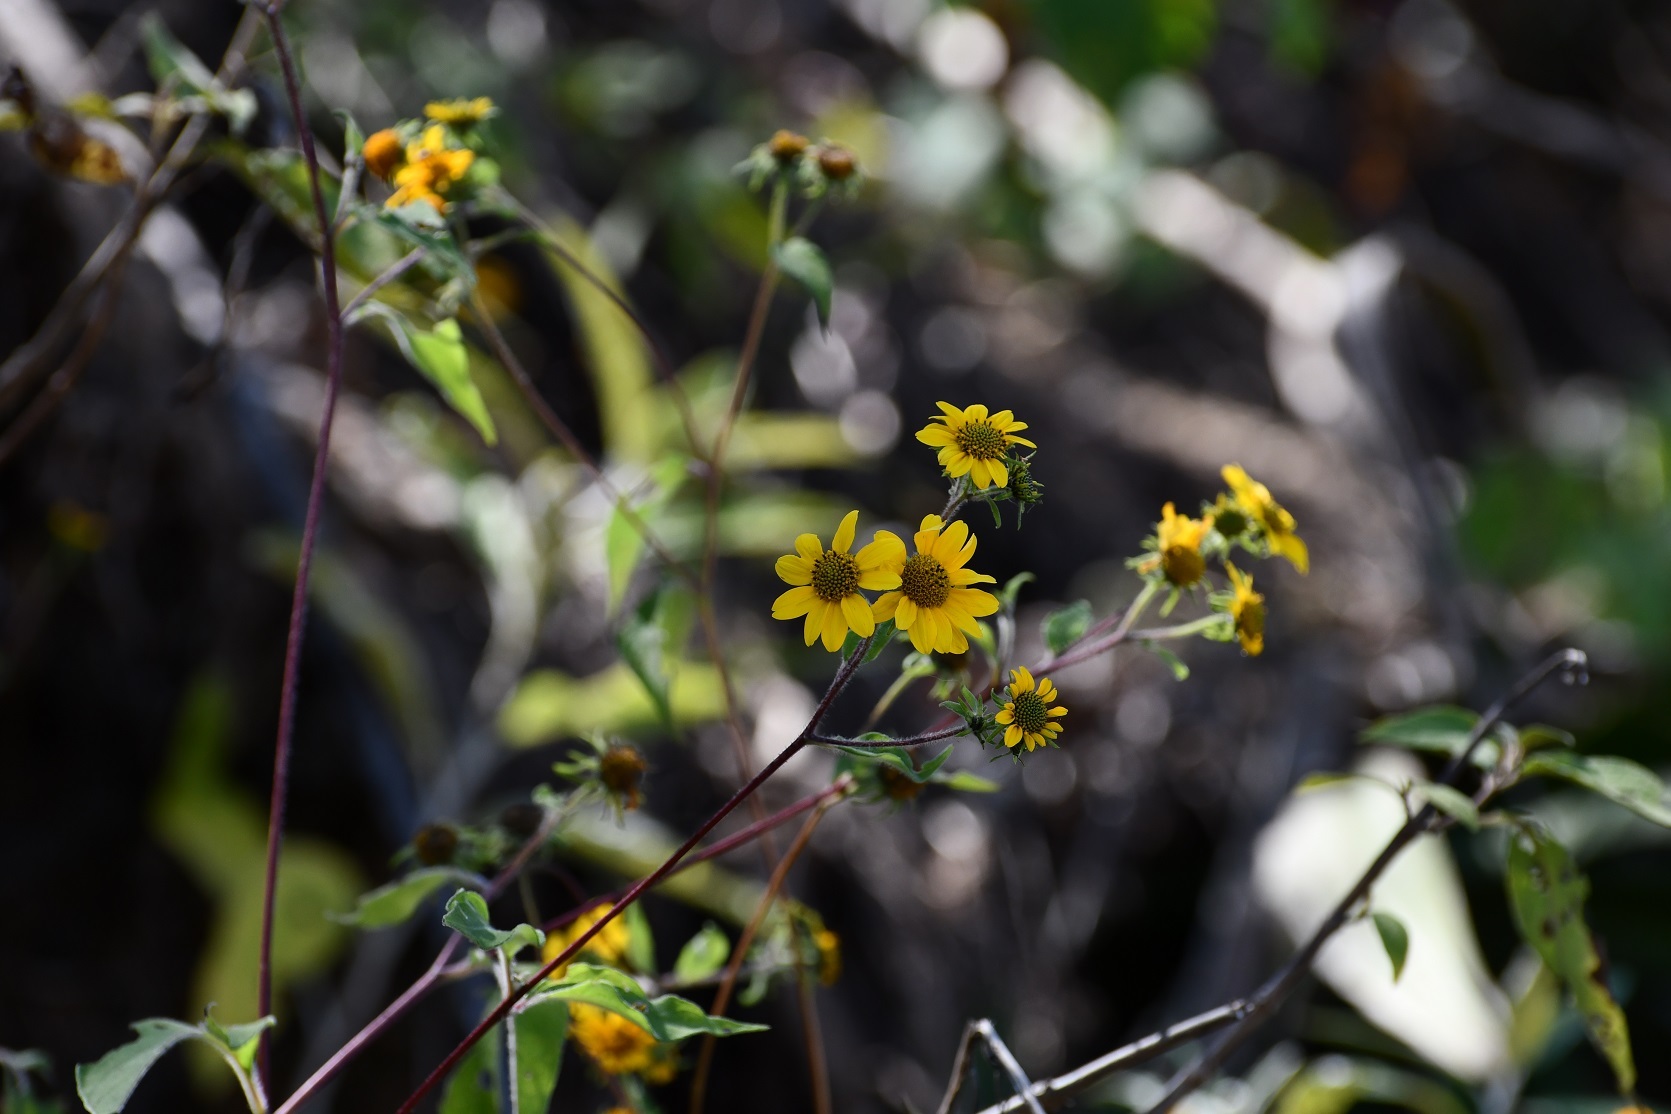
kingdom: Plantae
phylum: Tracheophyta
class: Magnoliopsida
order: Asterales
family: Asteraceae
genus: Verbesina
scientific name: Verbesina hypoglauca
